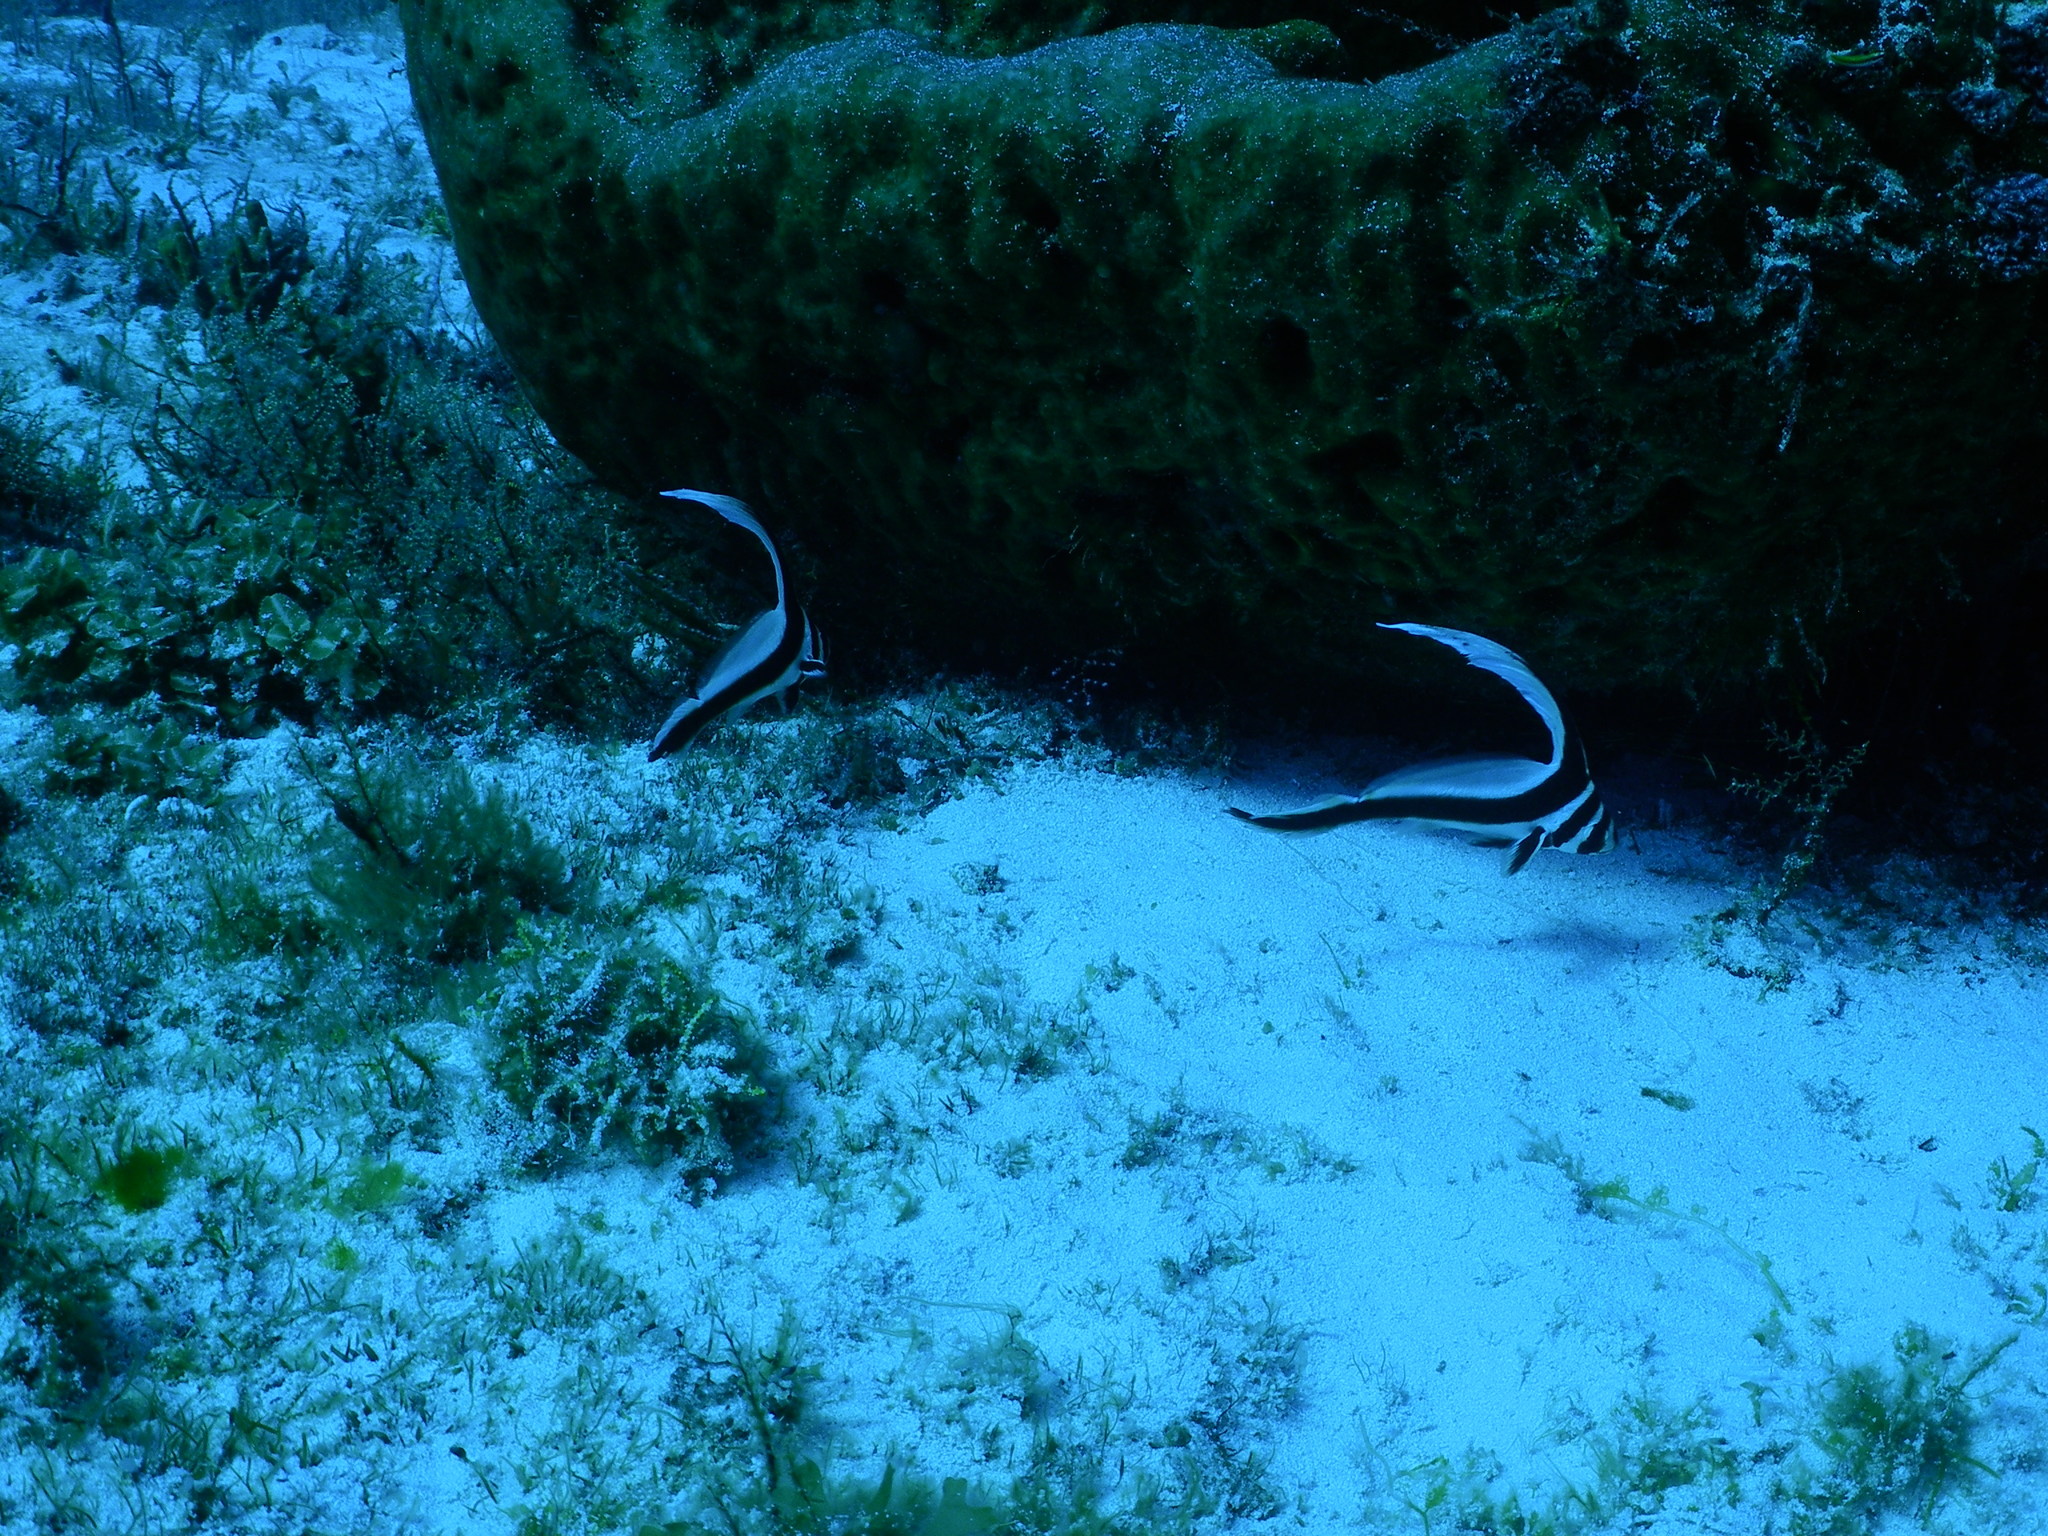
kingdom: Animalia
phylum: Chordata
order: Perciformes
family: Sciaenidae
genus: Equetus
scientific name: Equetus punctatus
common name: Spotted drum
